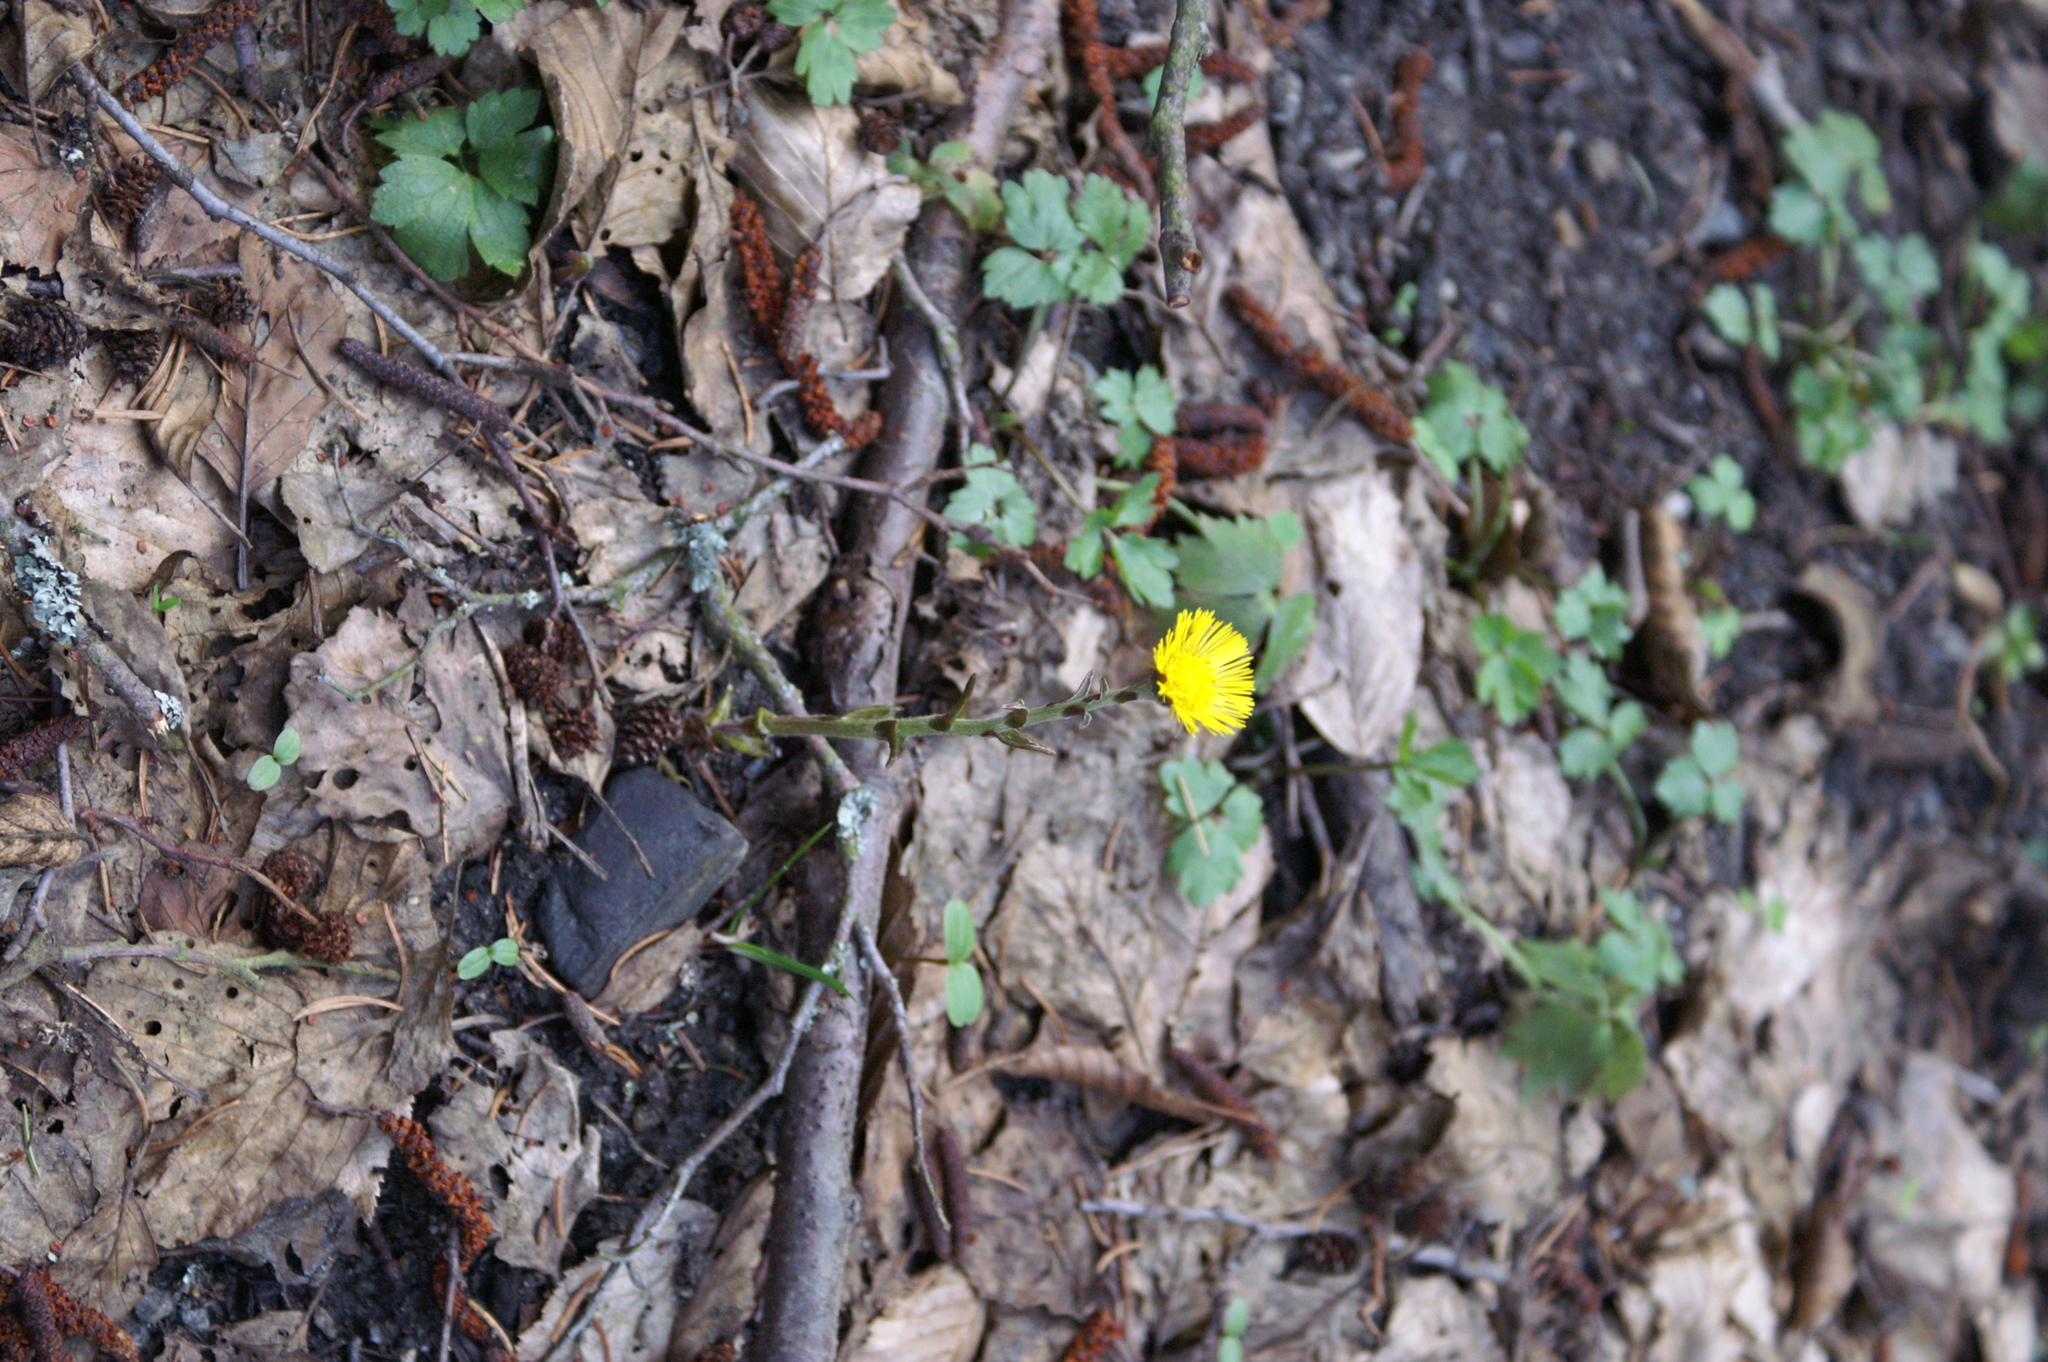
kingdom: Plantae
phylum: Tracheophyta
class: Magnoliopsida
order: Asterales
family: Asteraceae
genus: Tussilago
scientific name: Tussilago farfara
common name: Coltsfoot
